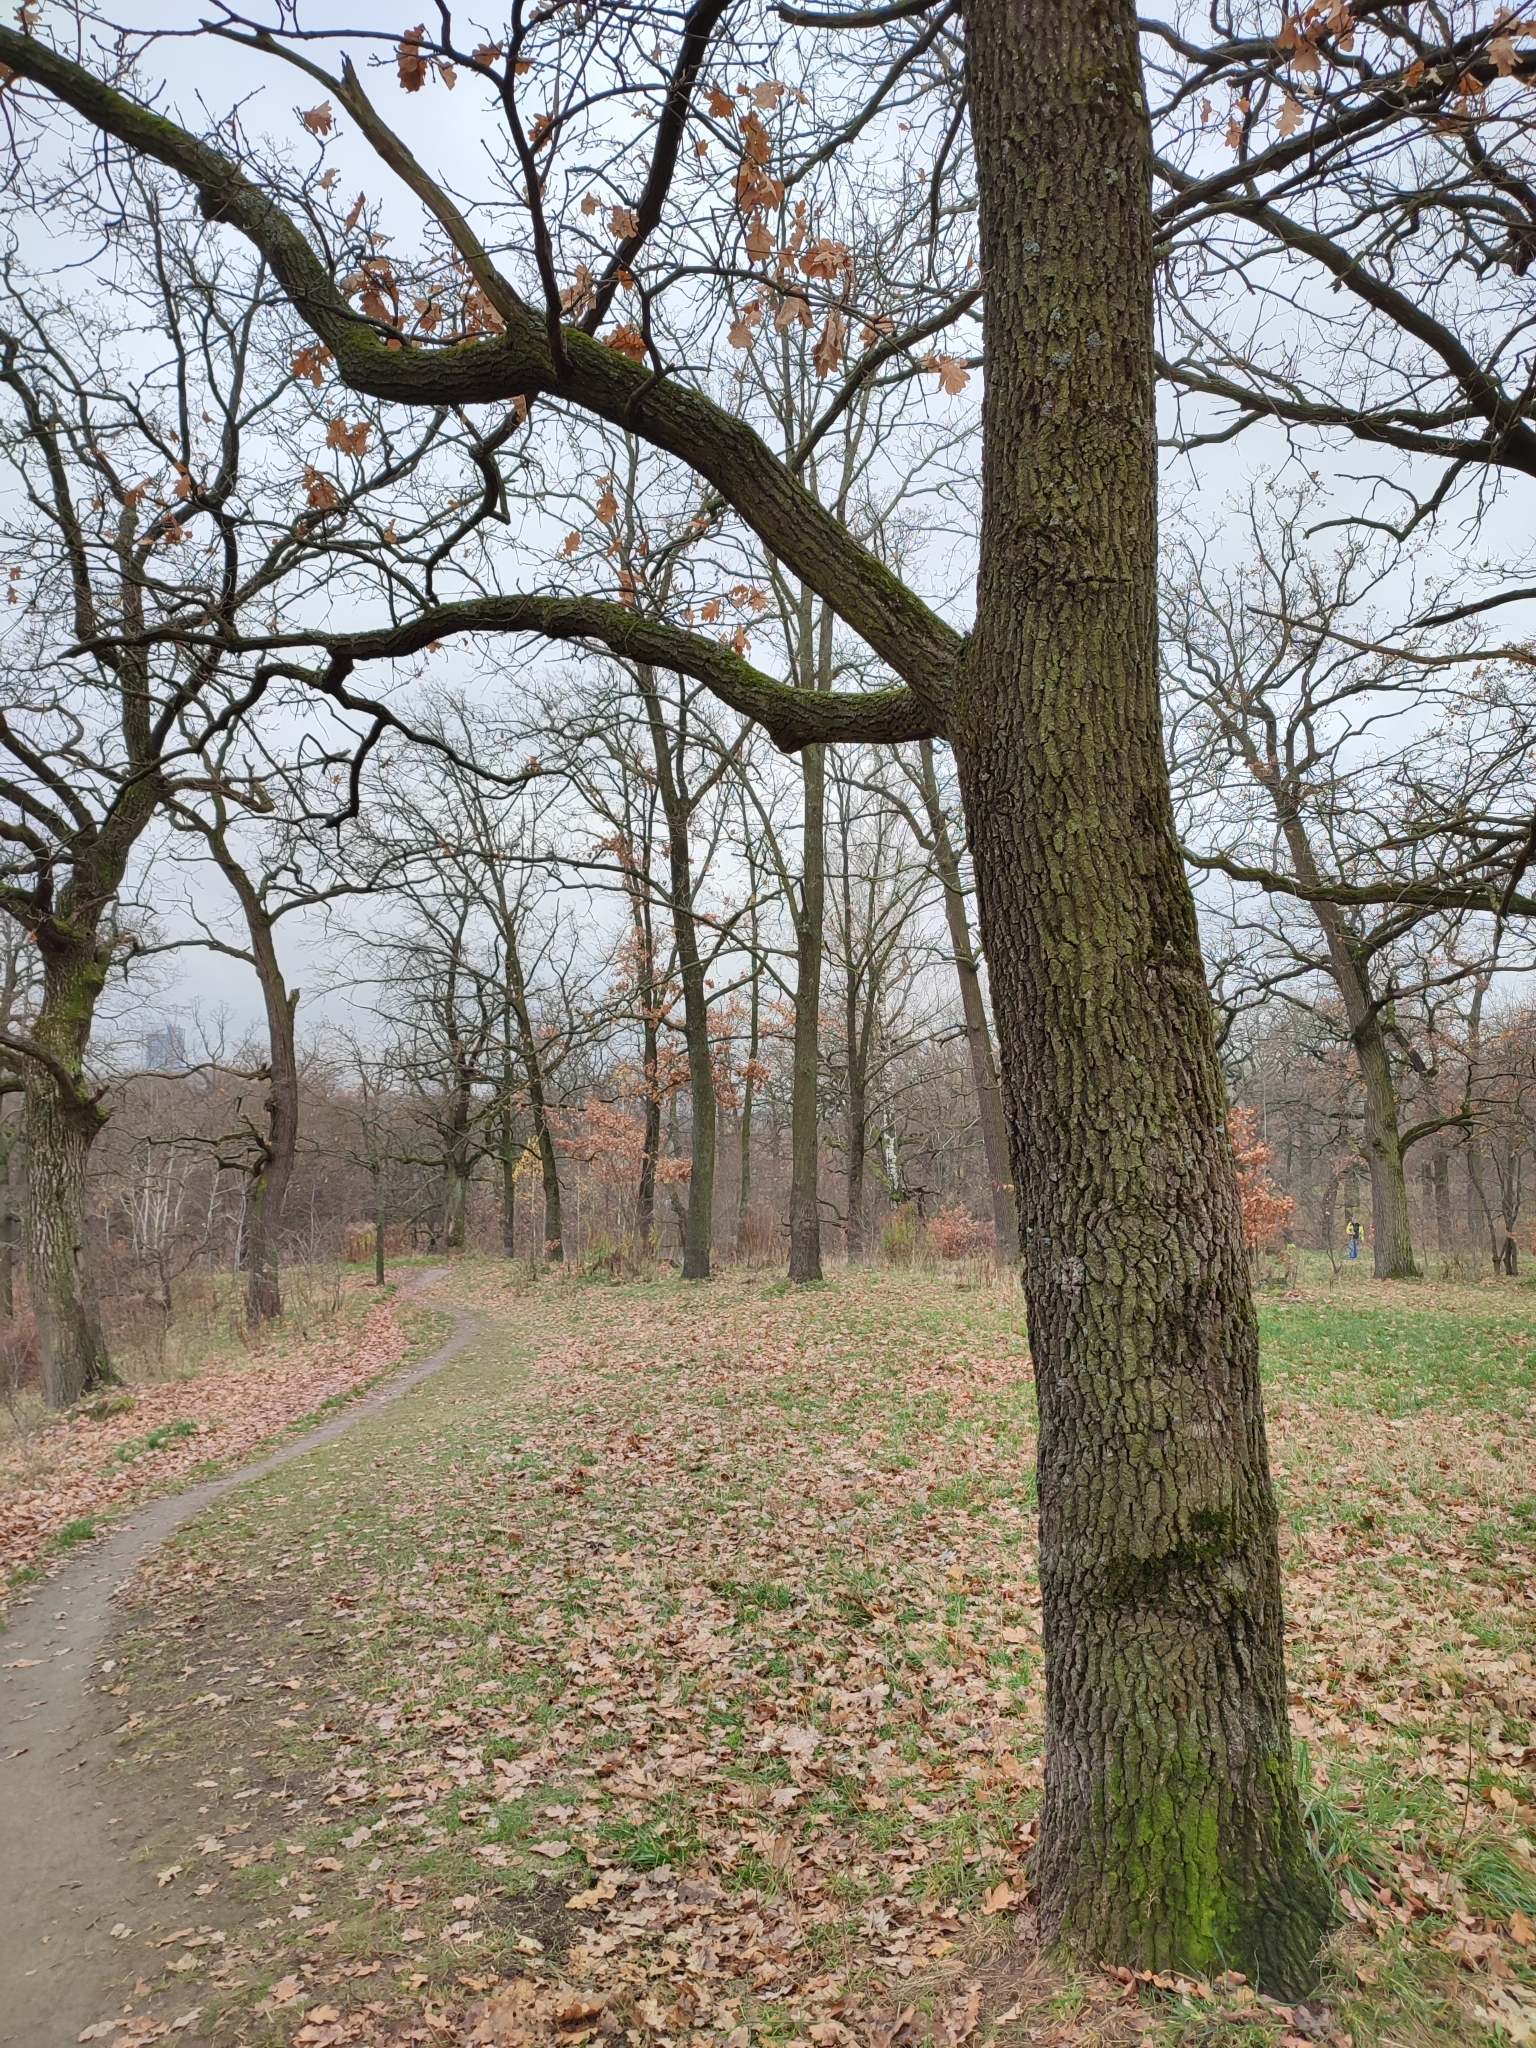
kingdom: Plantae
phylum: Tracheophyta
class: Magnoliopsida
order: Fagales
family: Fagaceae
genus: Quercus
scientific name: Quercus robur
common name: Pedunculate oak
